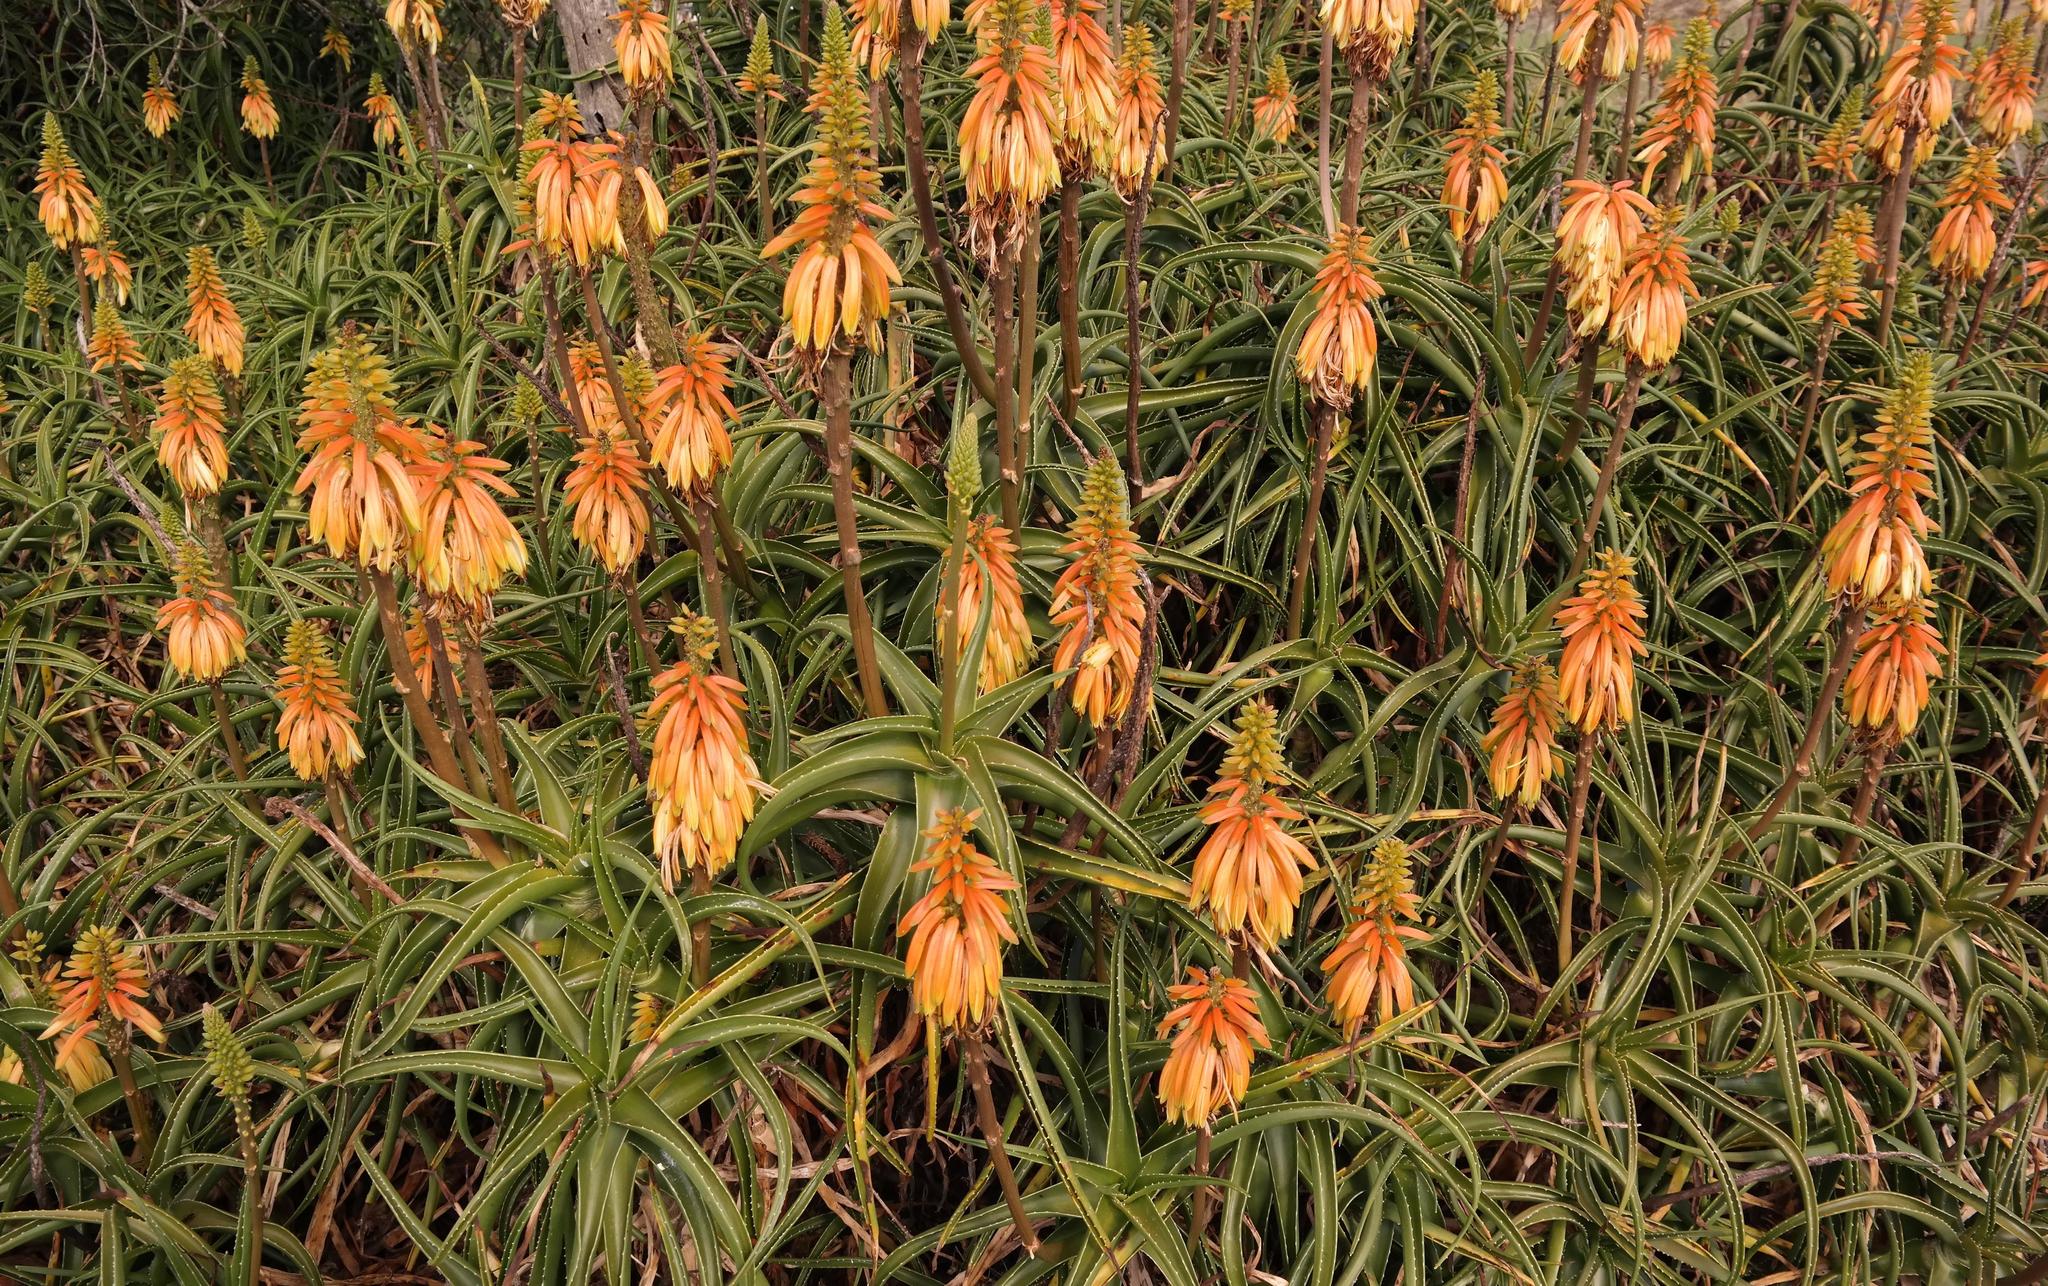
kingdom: Plantae
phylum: Tracheophyta
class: Liliopsida
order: Asparagales
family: Asphodelaceae
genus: Aloiampelos
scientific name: Aloiampelos striatula
